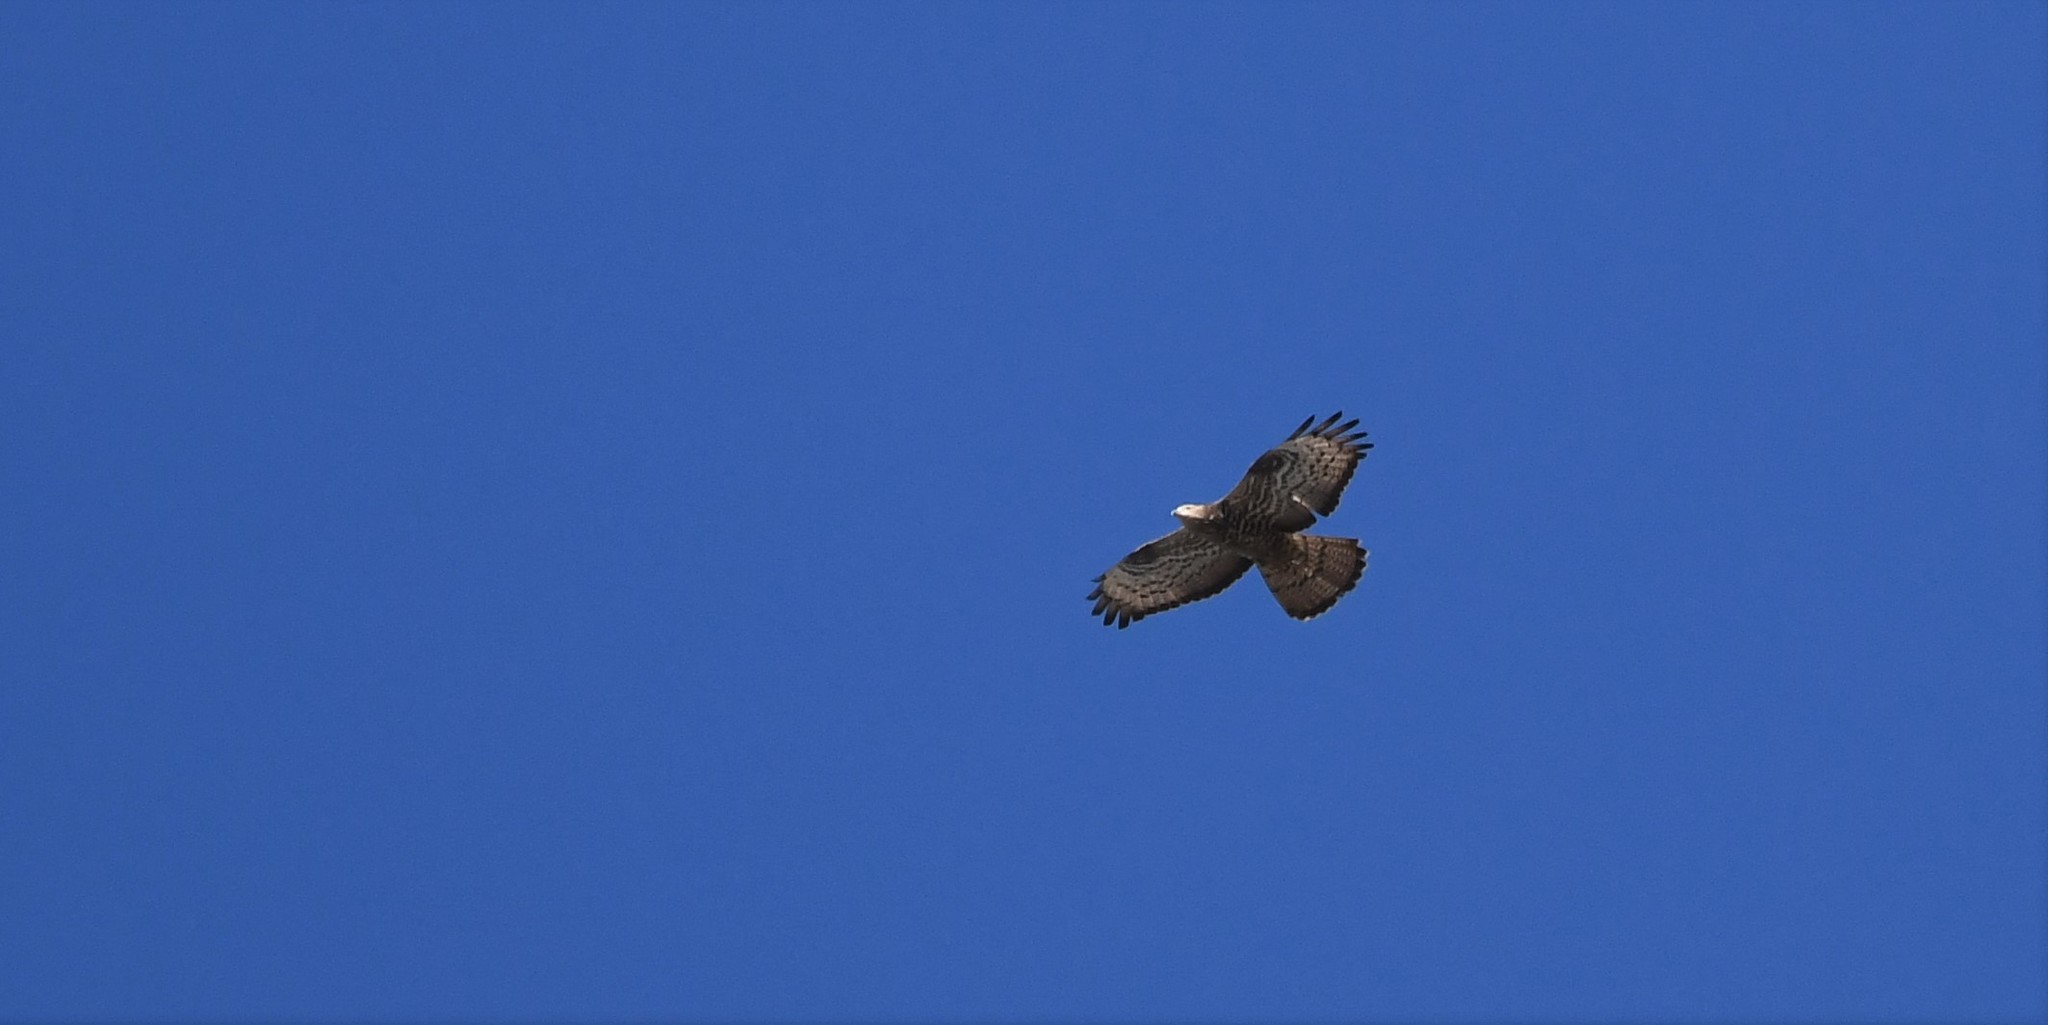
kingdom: Animalia
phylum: Chordata
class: Aves
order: Accipitriformes
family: Accipitridae
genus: Pernis
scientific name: Pernis apivorus
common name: European honey buzzard
